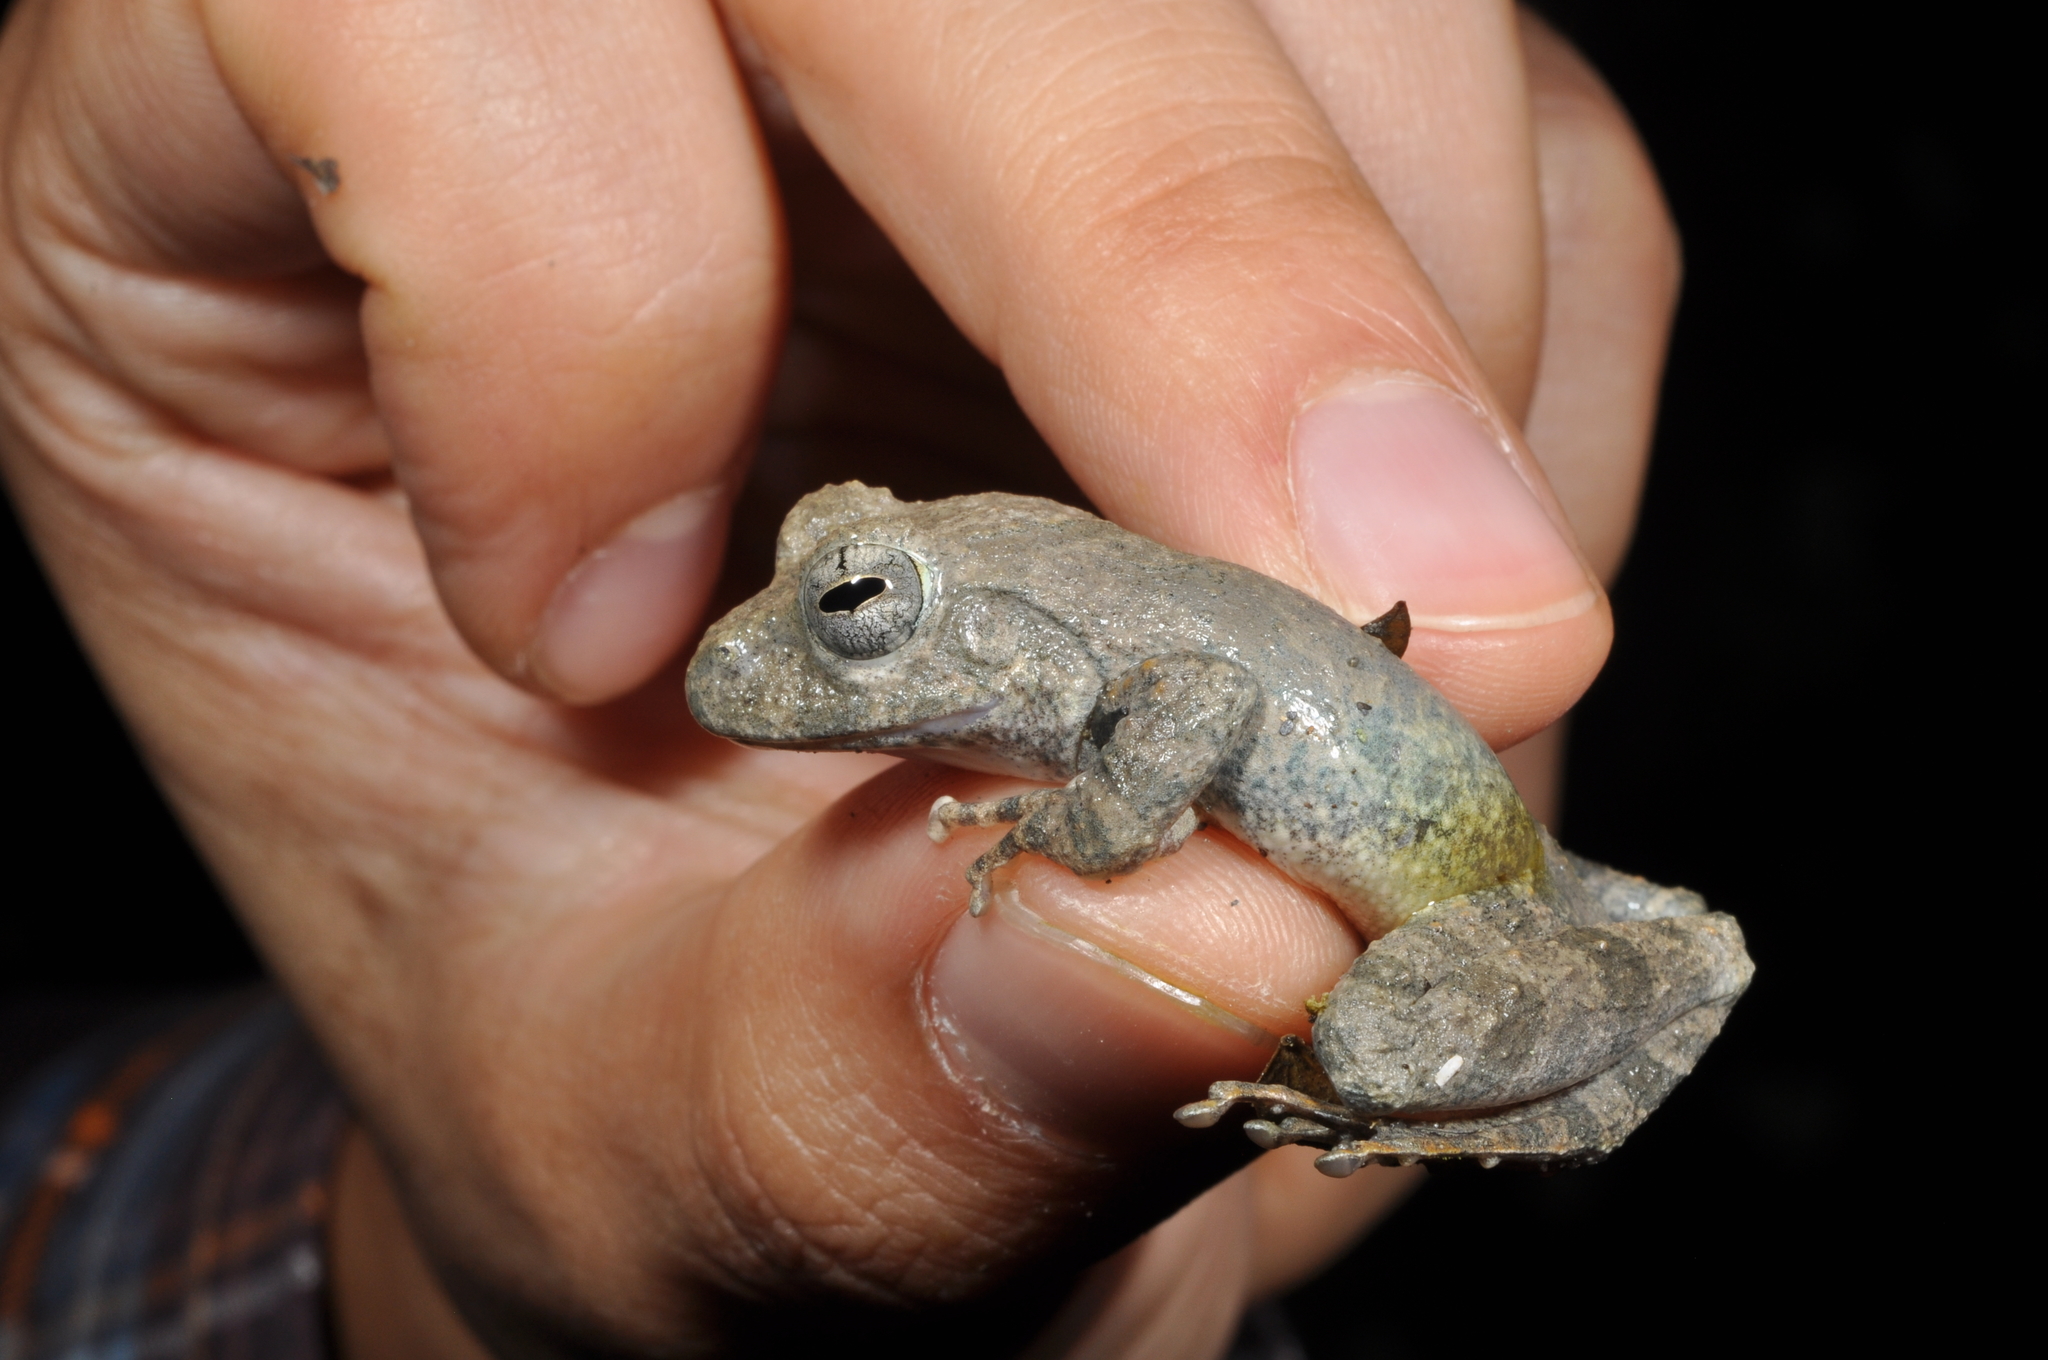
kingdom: Animalia
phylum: Chordata
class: Amphibia
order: Anura
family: Rhacophoridae
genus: Buergeria
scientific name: Buergeria otai
